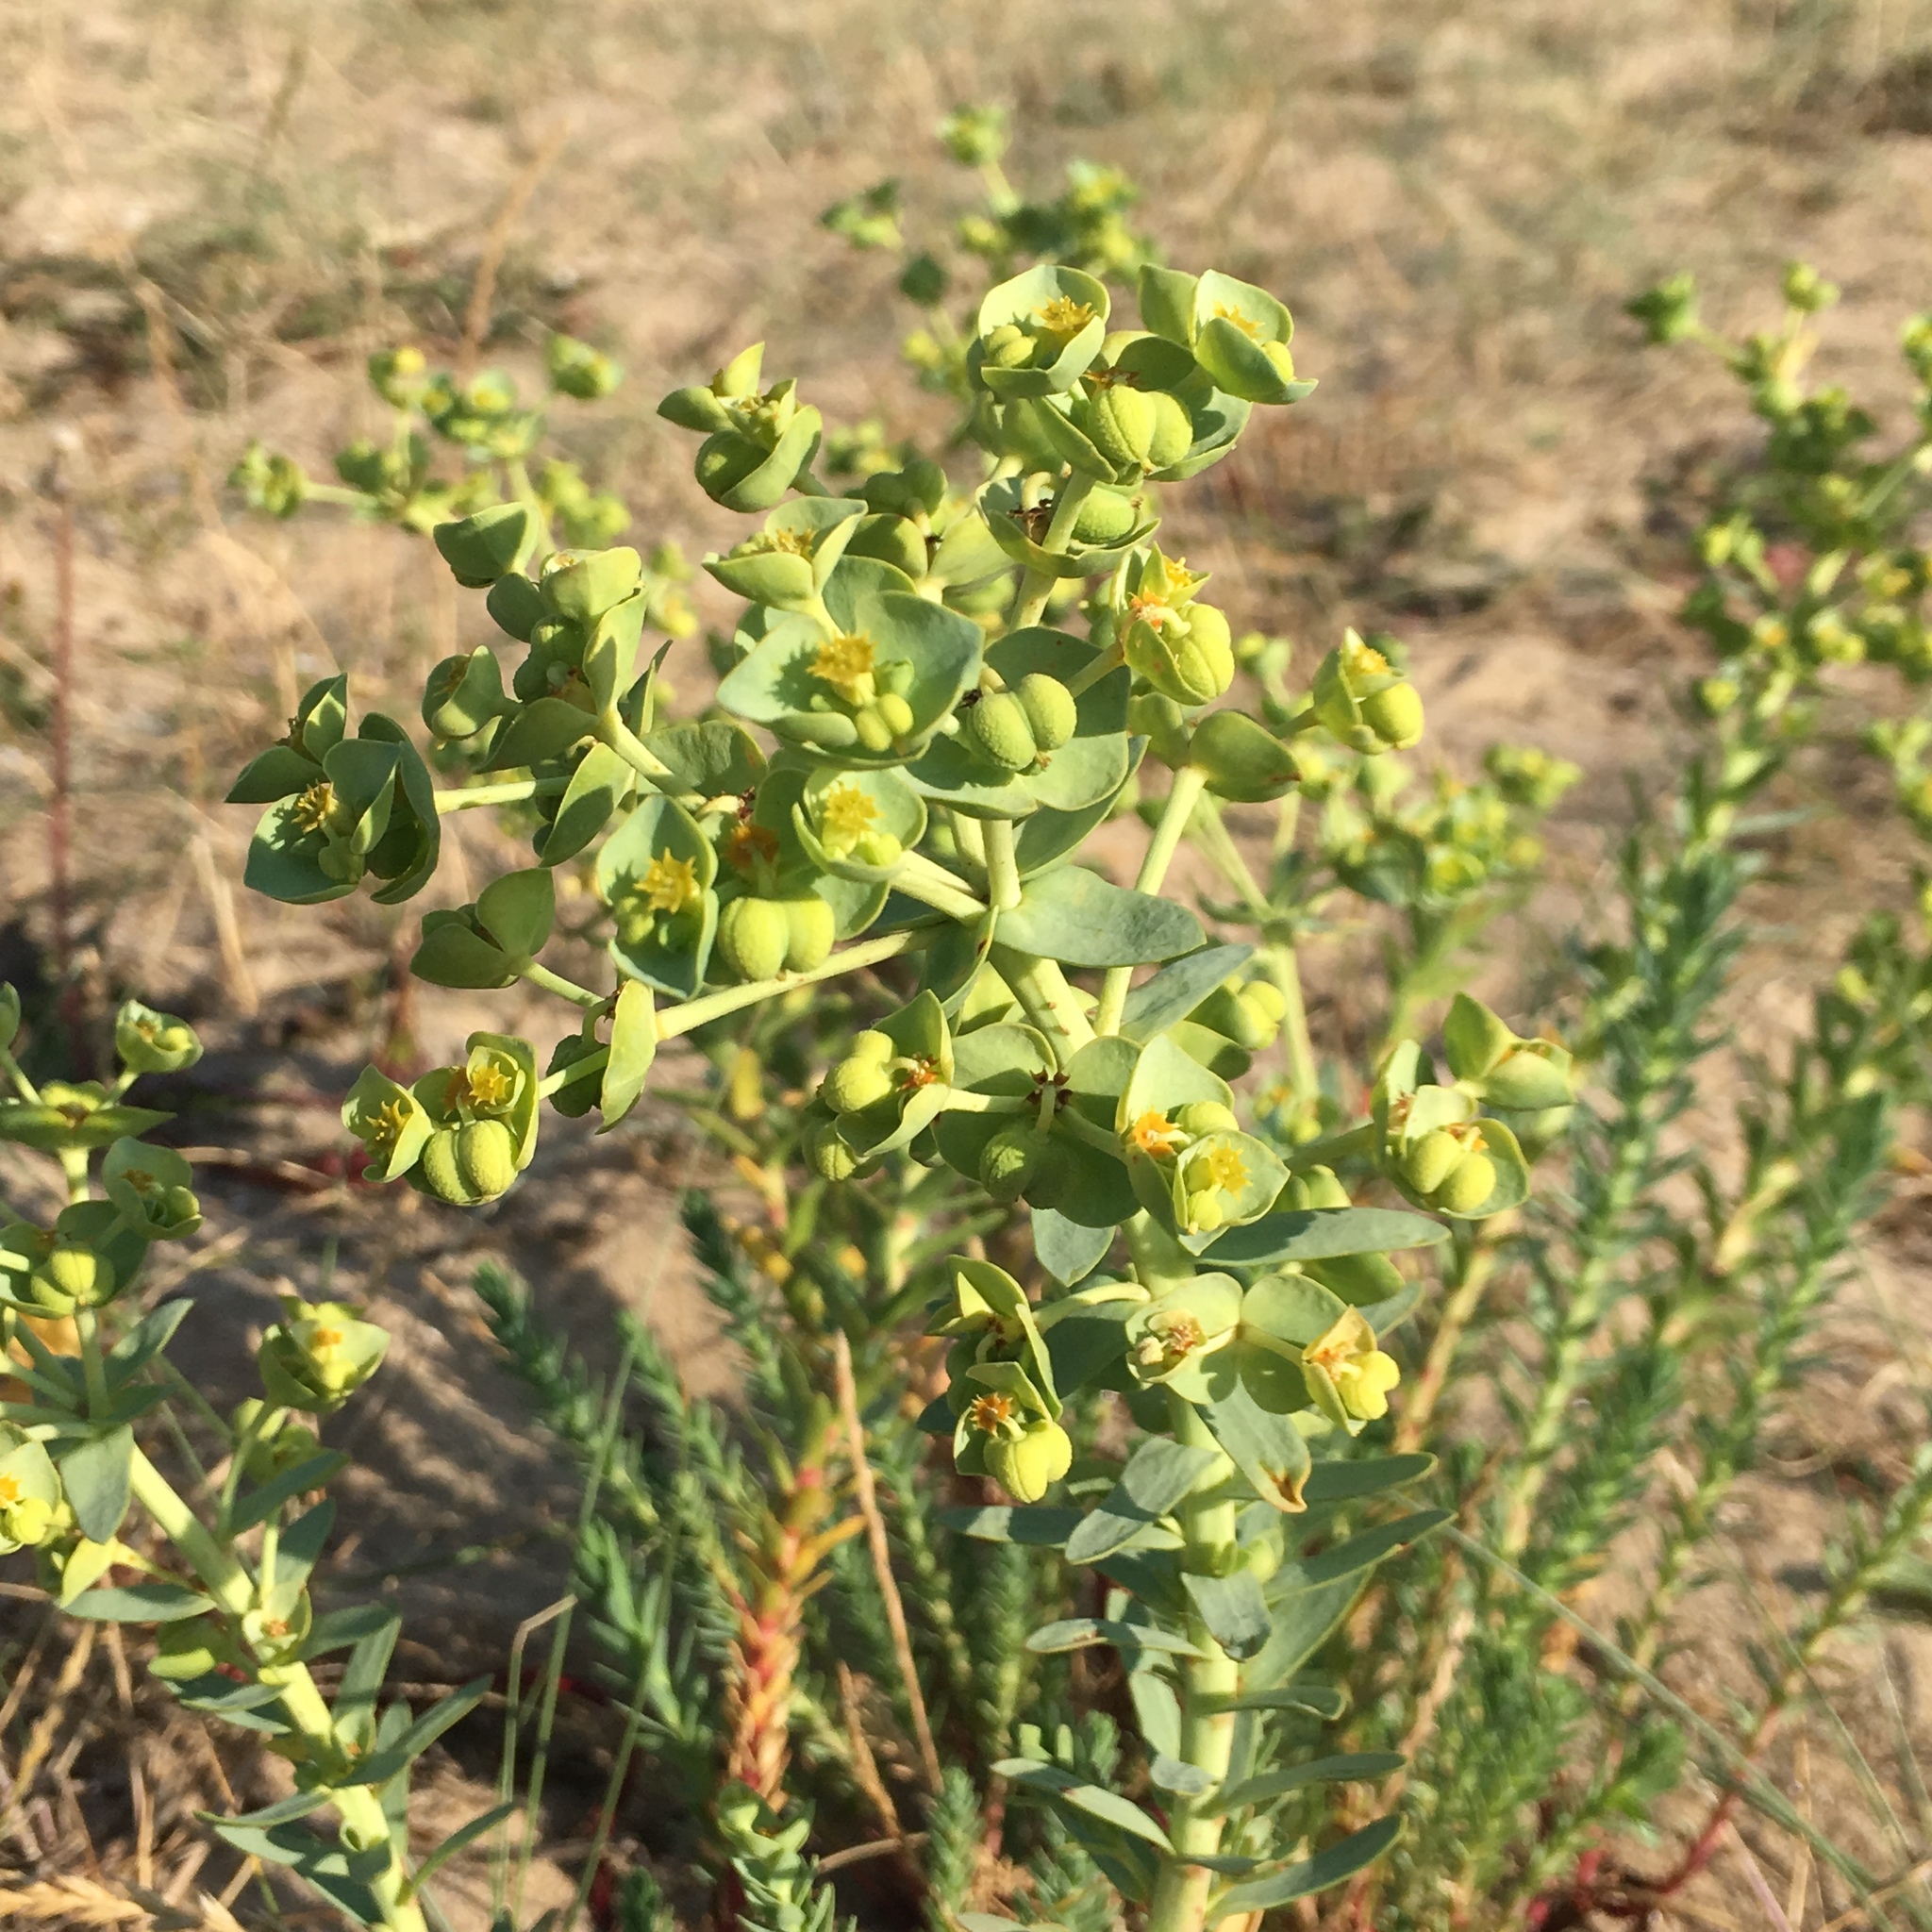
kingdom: Plantae
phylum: Tracheophyta
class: Magnoliopsida
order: Malpighiales
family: Euphorbiaceae
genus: Euphorbia
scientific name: Euphorbia paralias
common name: Sea spurge
